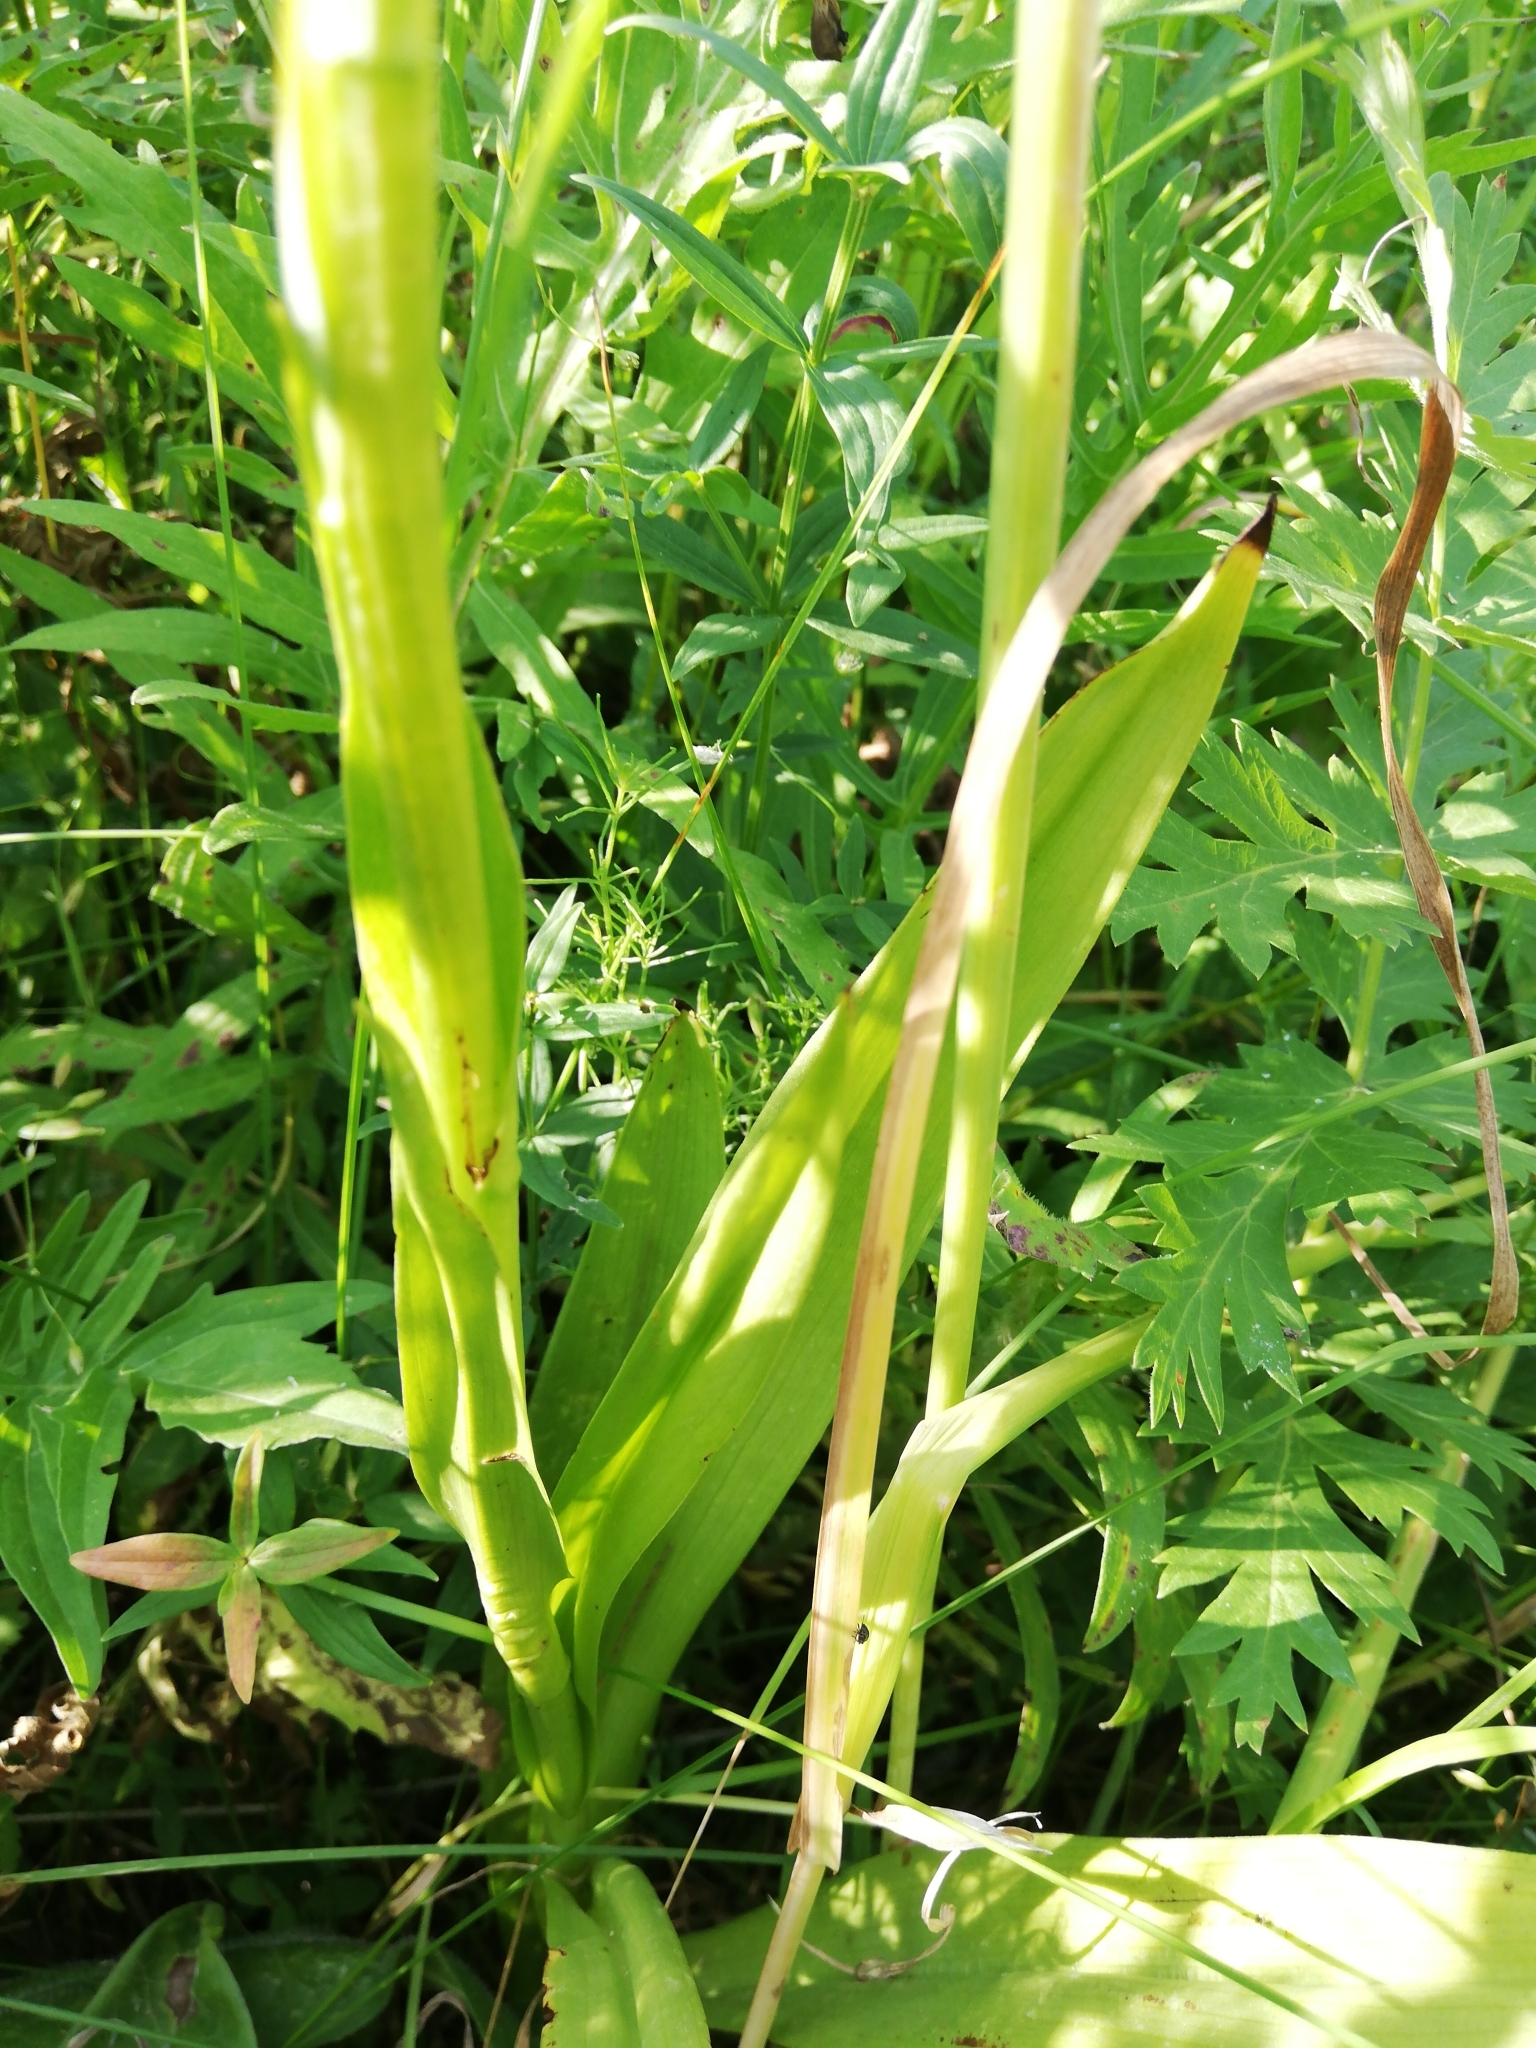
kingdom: Plantae
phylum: Tracheophyta
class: Liliopsida
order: Asparagales
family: Orchidaceae
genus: Gymnadenia
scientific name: Gymnadenia conopsea
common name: Fragrant orchid
